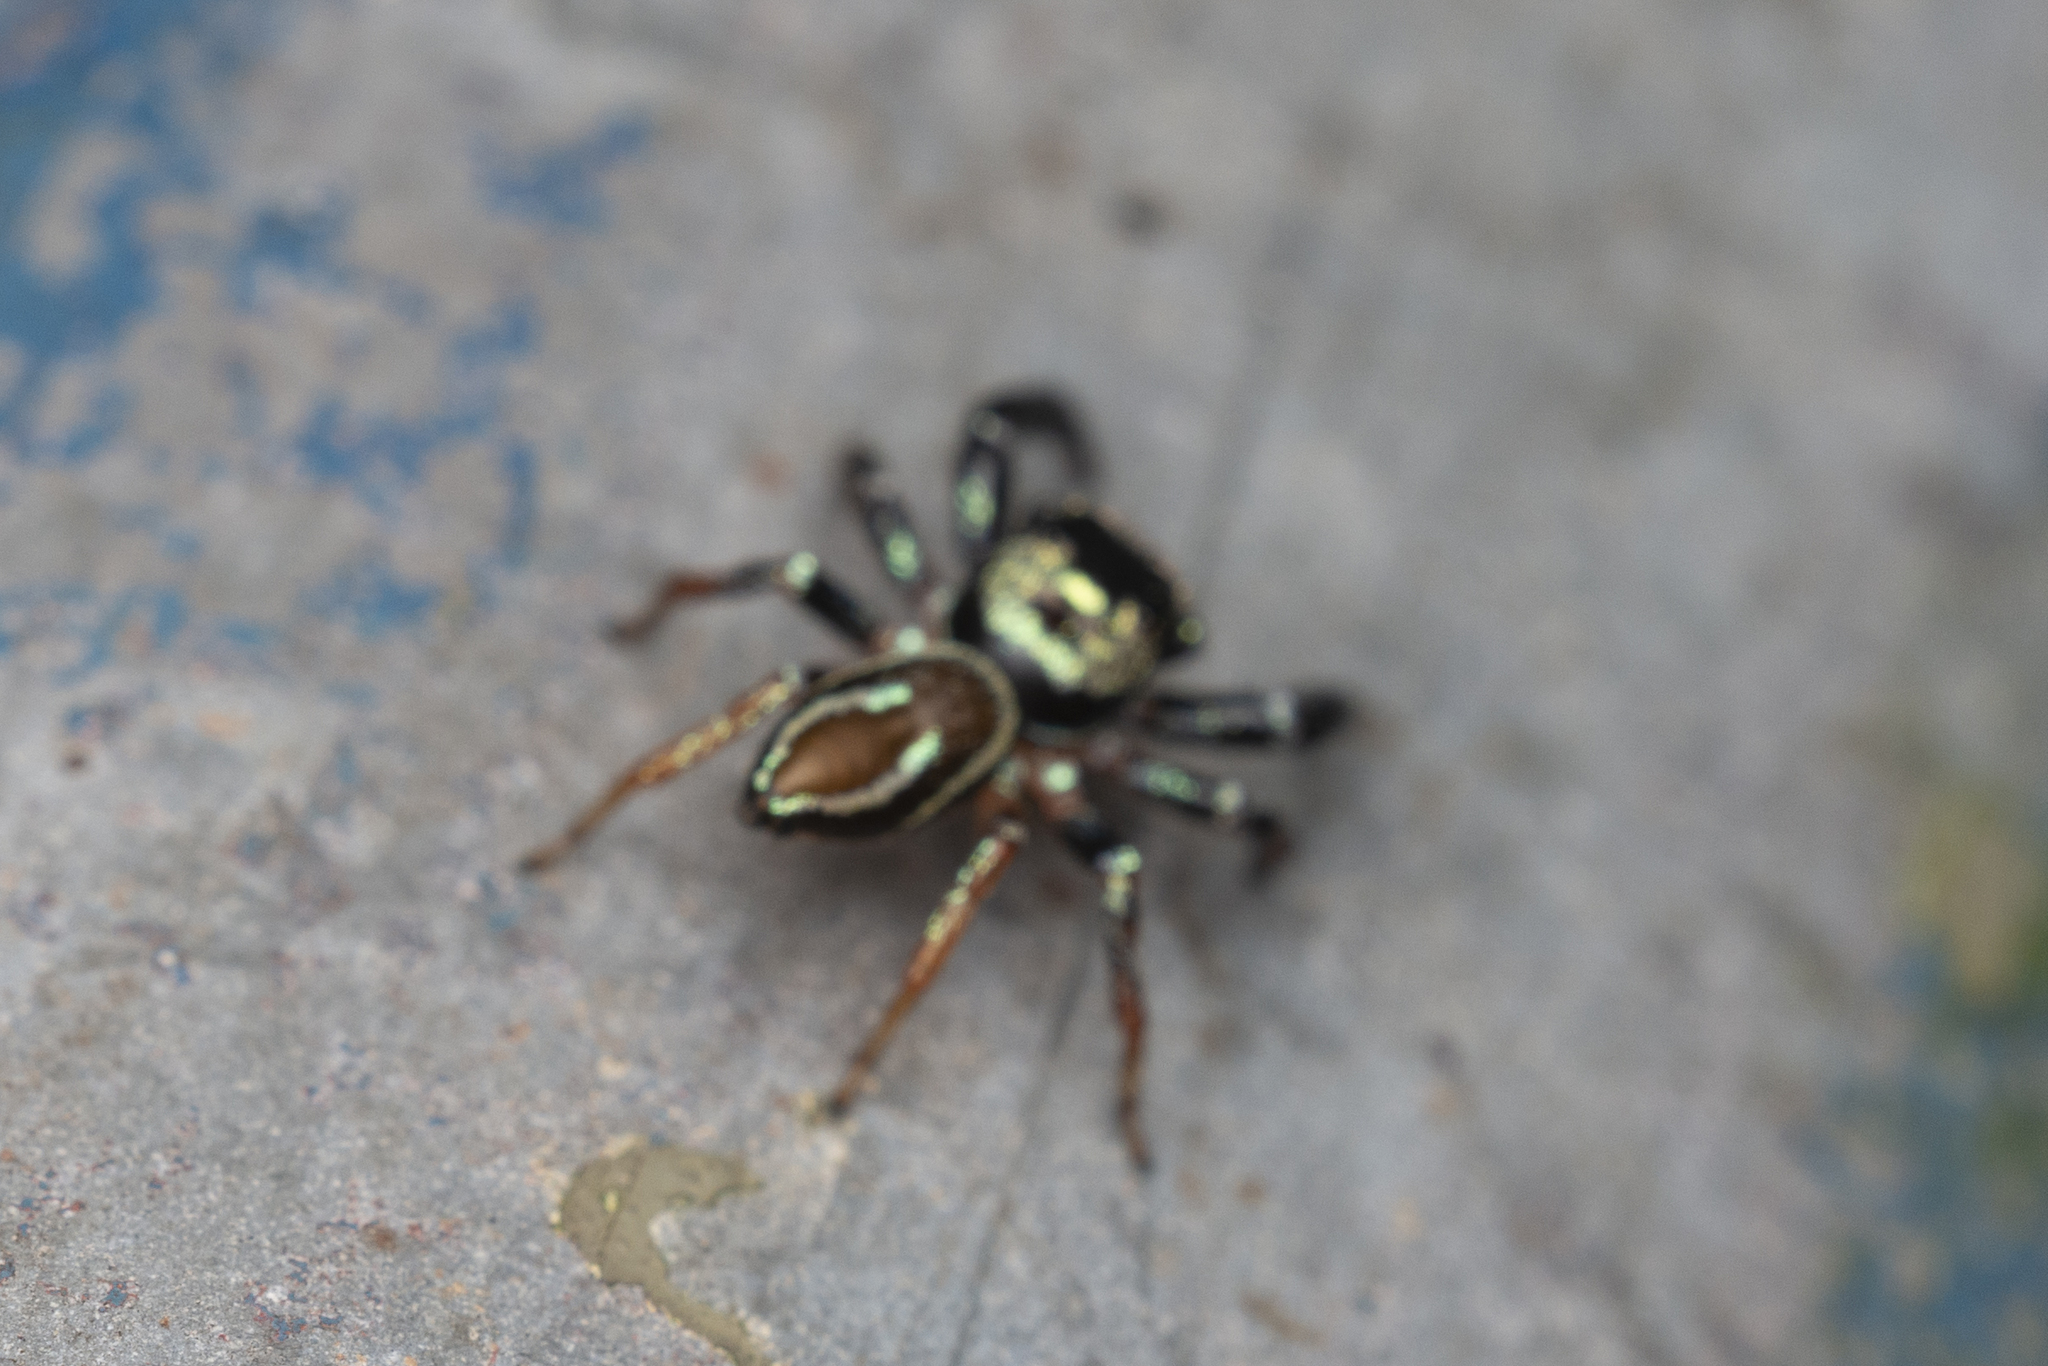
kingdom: Animalia
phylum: Arthropoda
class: Arachnida
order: Araneae
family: Salticidae
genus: Thiania
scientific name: Thiania suboppressa
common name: Jumping spider
